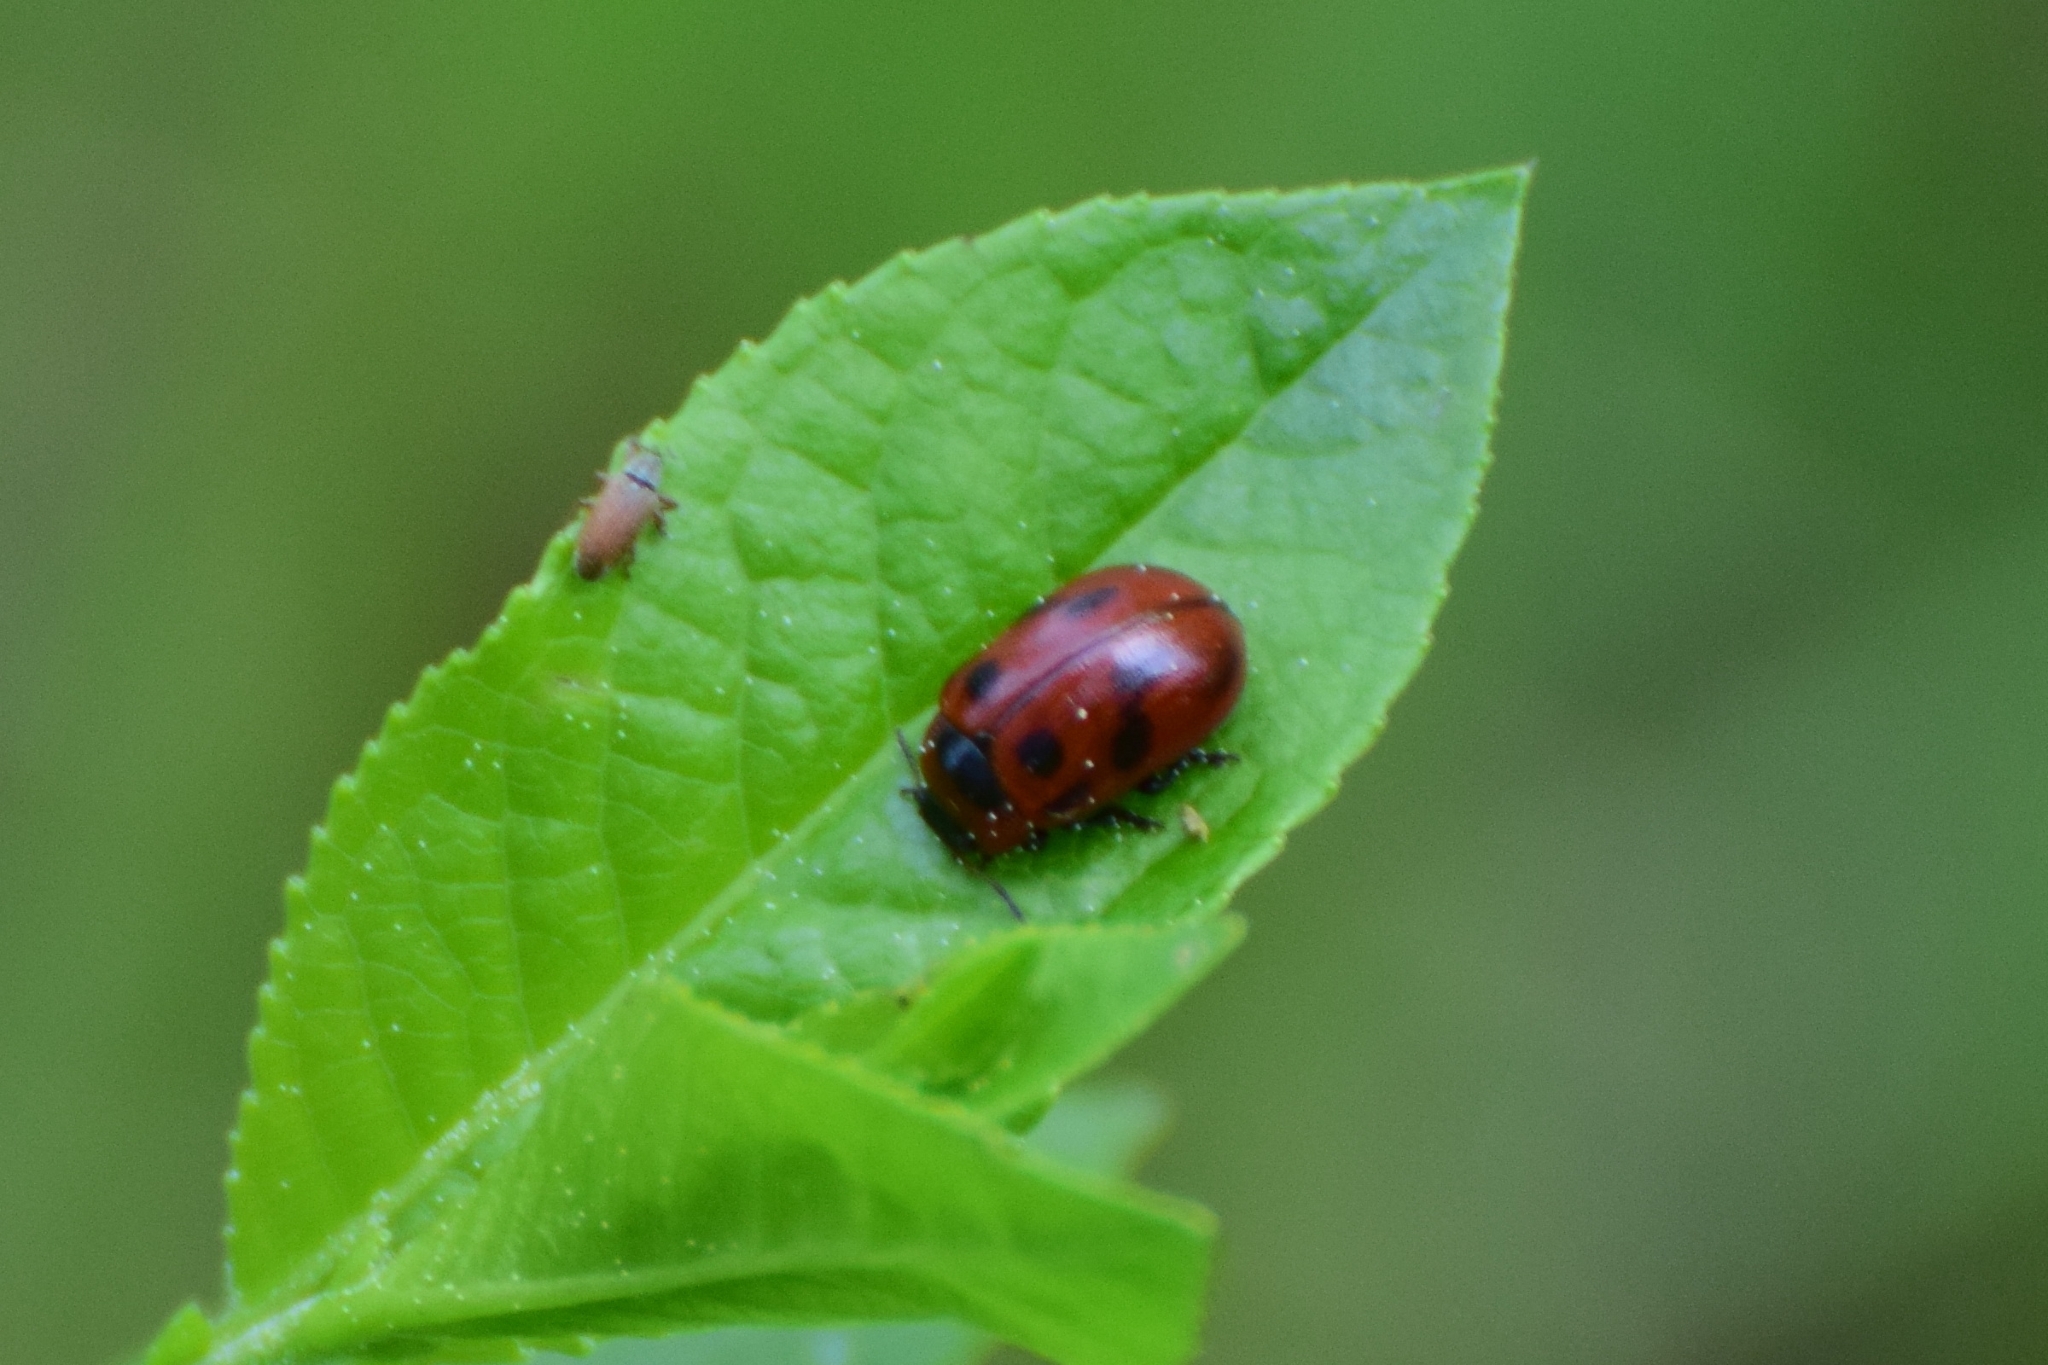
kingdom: Animalia
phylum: Arthropoda
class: Insecta
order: Coleoptera
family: Chrysomelidae
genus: Gonioctena
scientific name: Gonioctena viminalis
